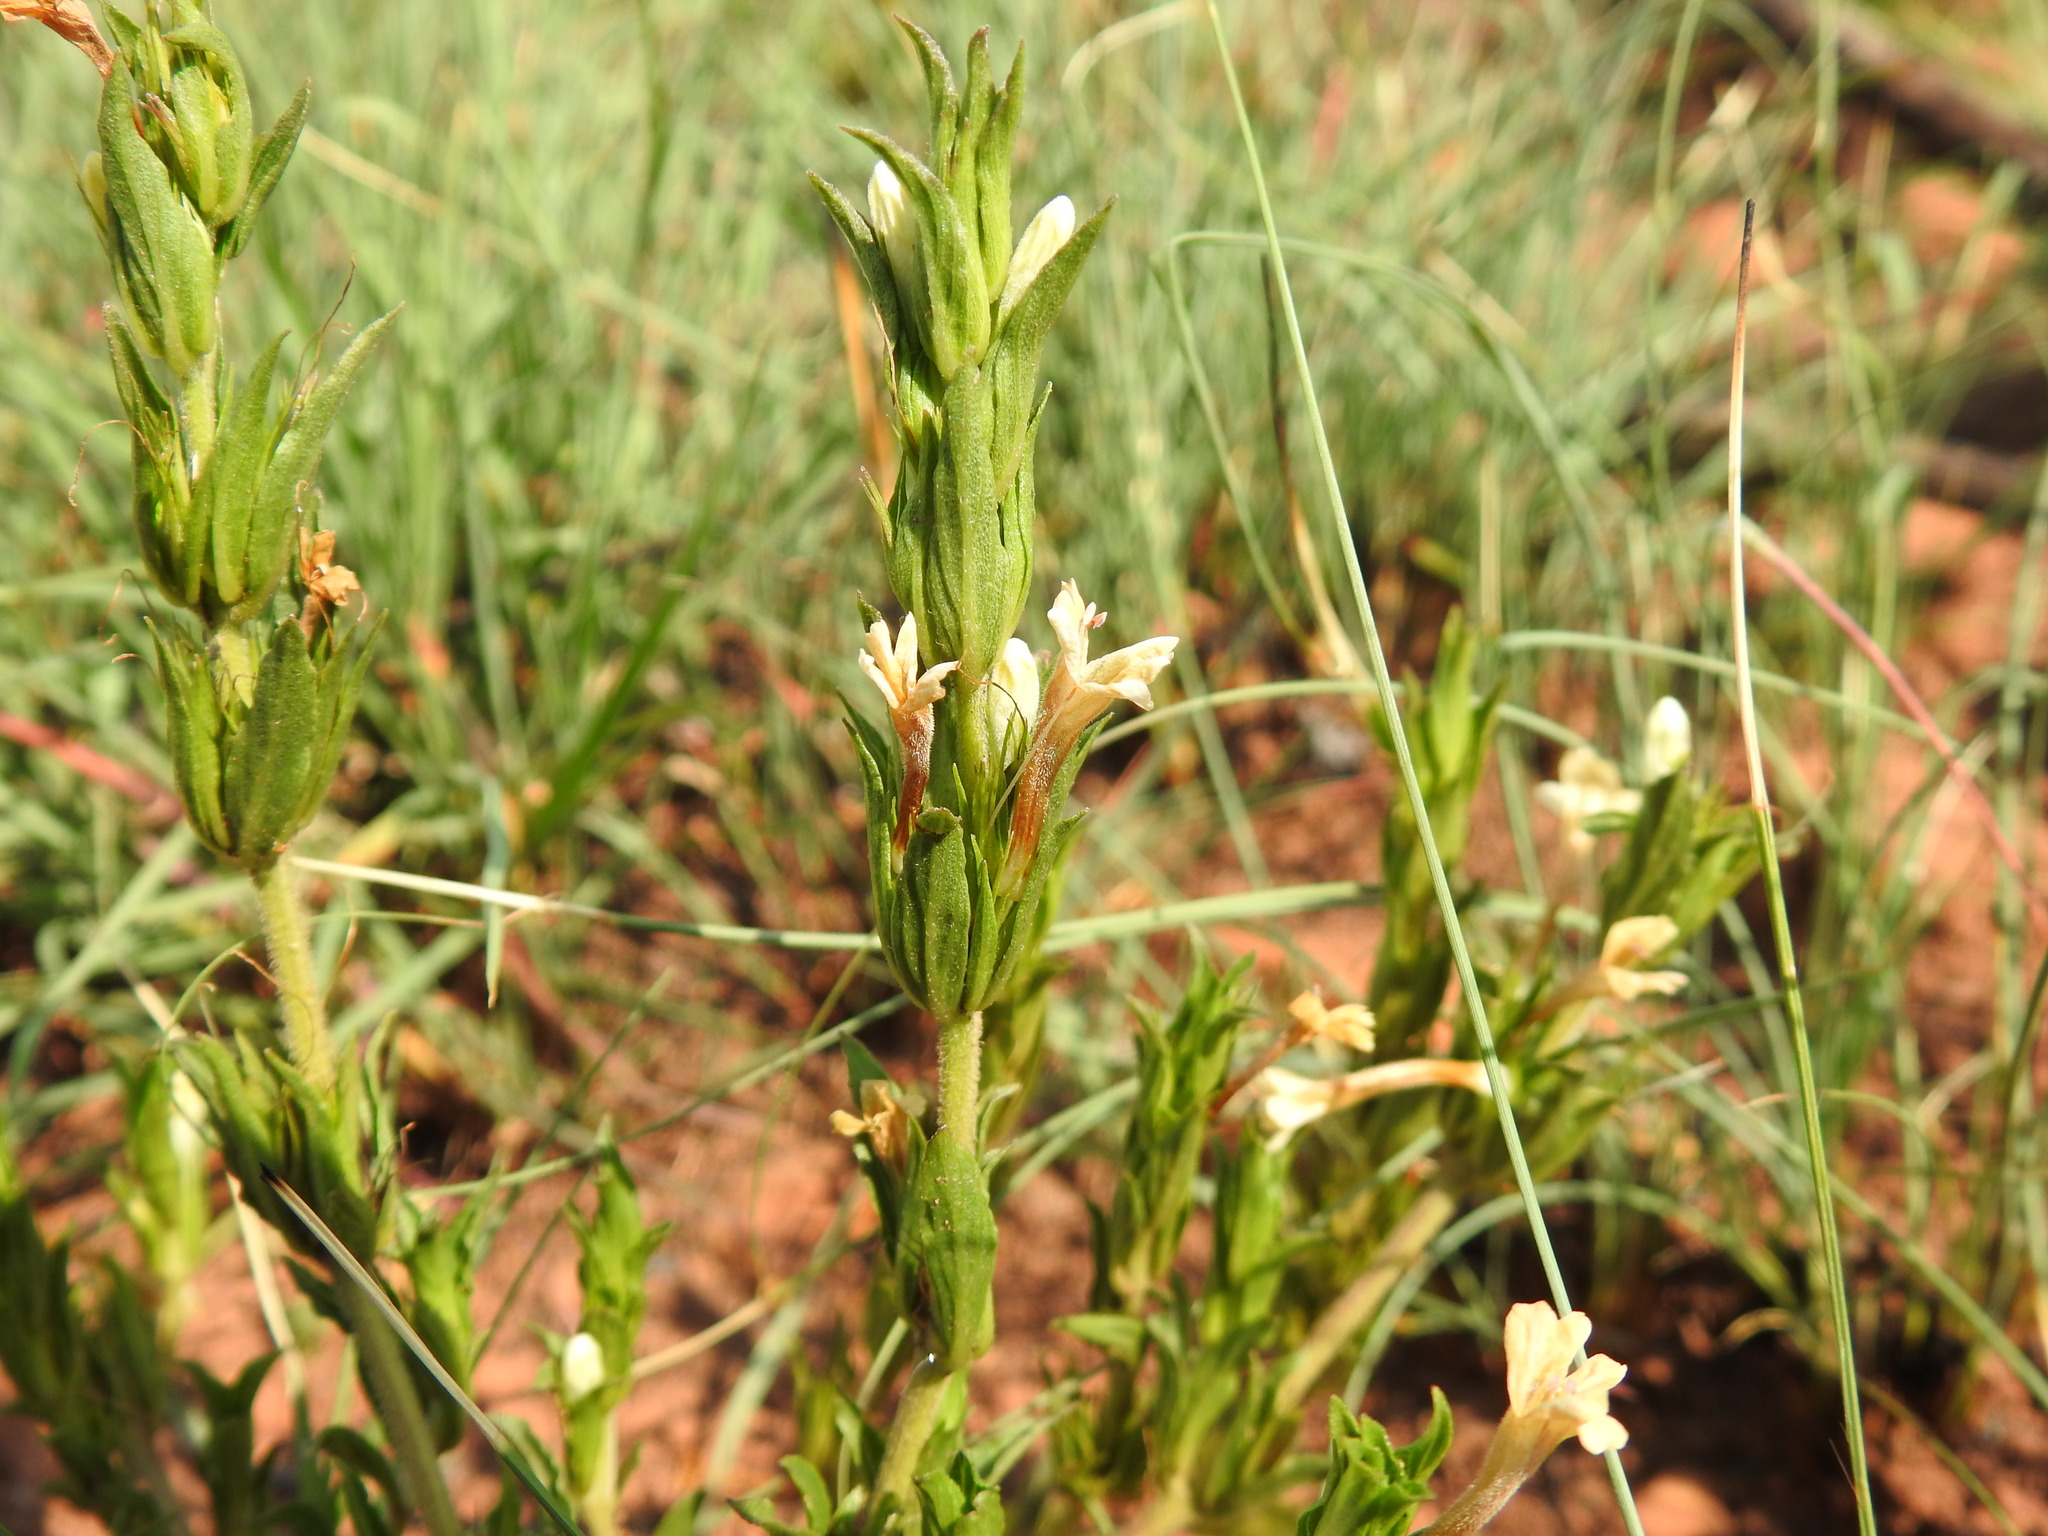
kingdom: Plantae
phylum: Tracheophyta
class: Magnoliopsida
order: Lamiales
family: Acanthaceae
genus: Dyschoriste
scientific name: Dyschoriste costata
